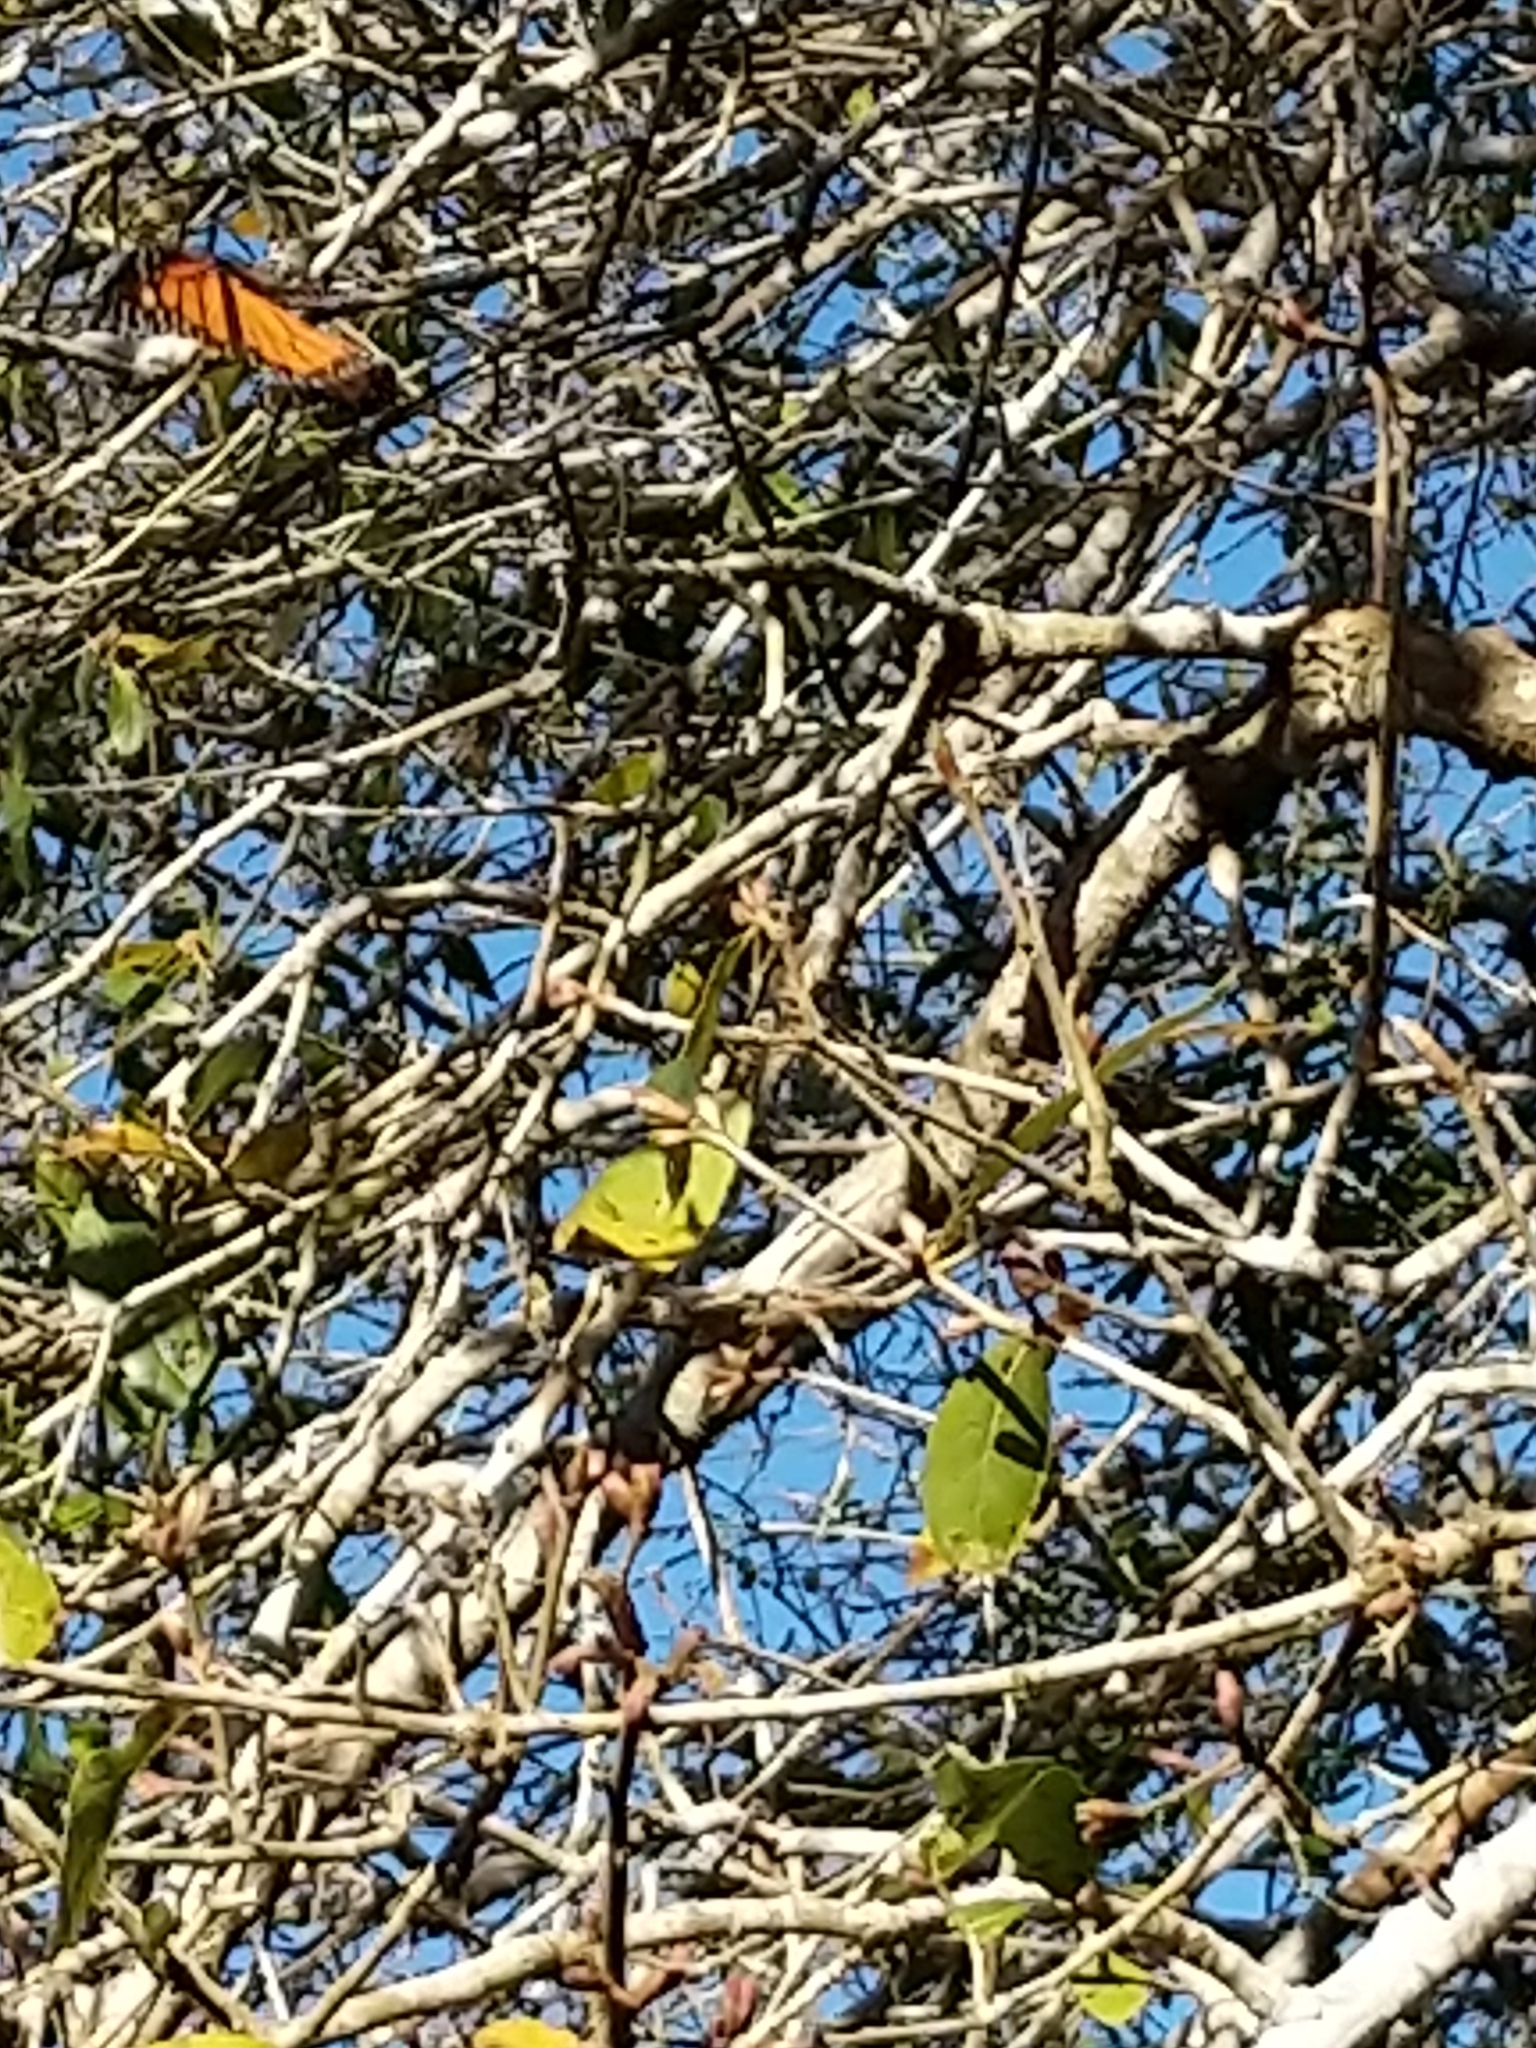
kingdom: Animalia
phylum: Arthropoda
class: Insecta
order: Lepidoptera
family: Nymphalidae
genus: Danaus
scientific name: Danaus plexippus
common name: Monarch
